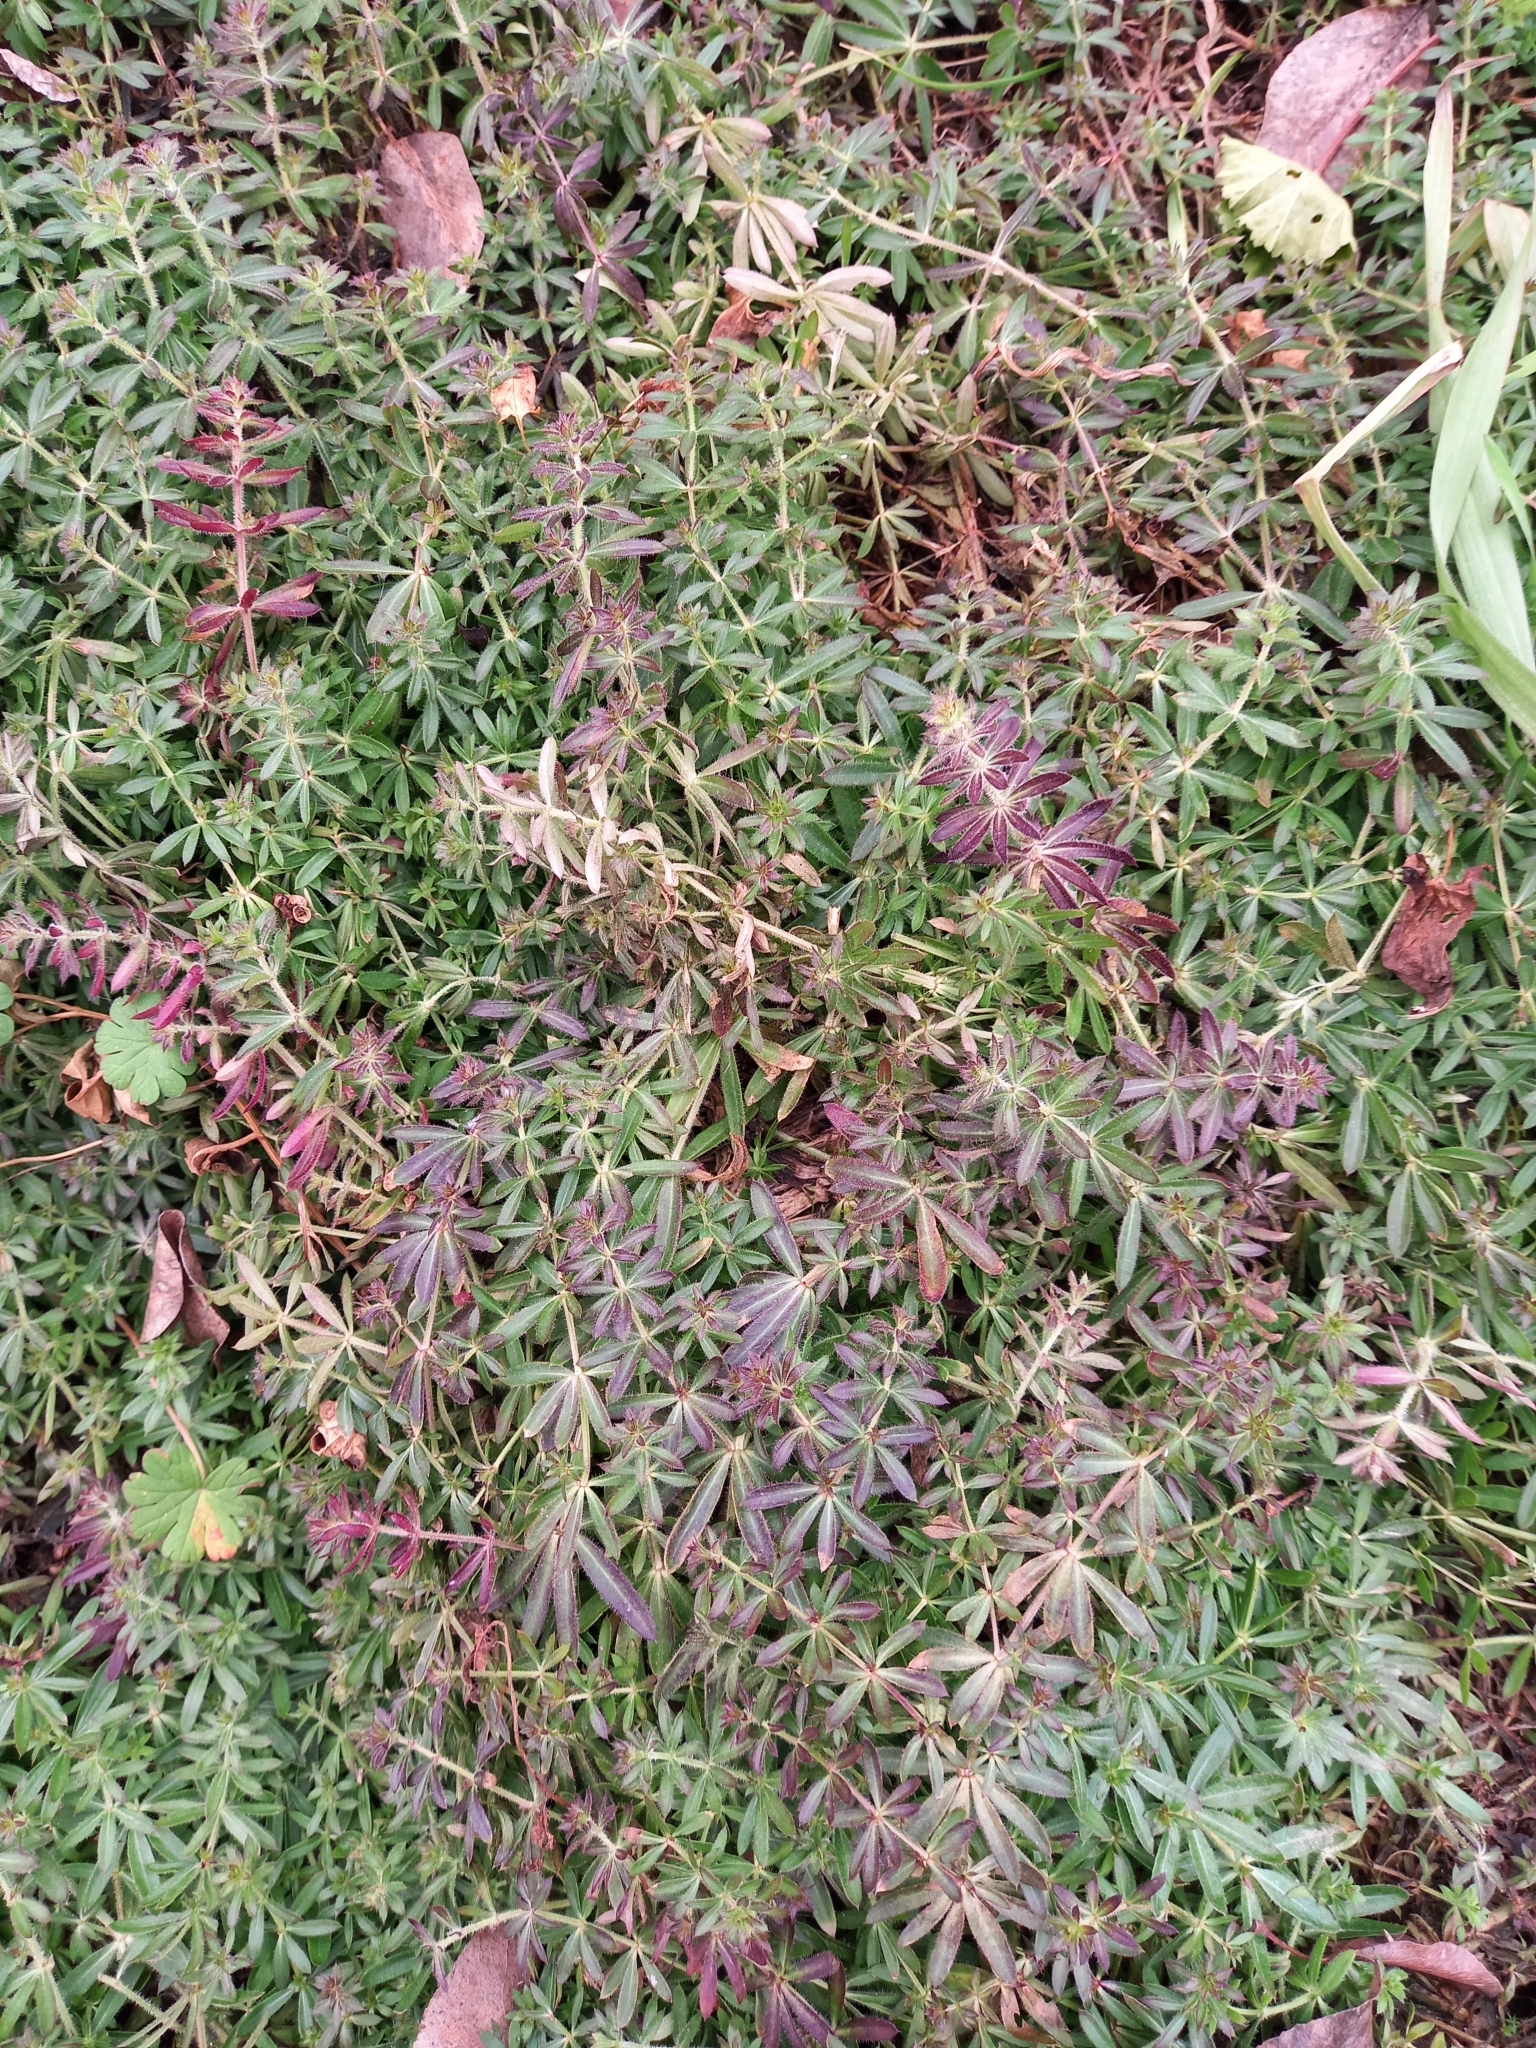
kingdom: Plantae
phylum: Tracheophyta
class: Magnoliopsida
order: Gentianales
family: Rubiaceae
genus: Galium
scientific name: Galium humifusum
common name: Spreading bedstraw
